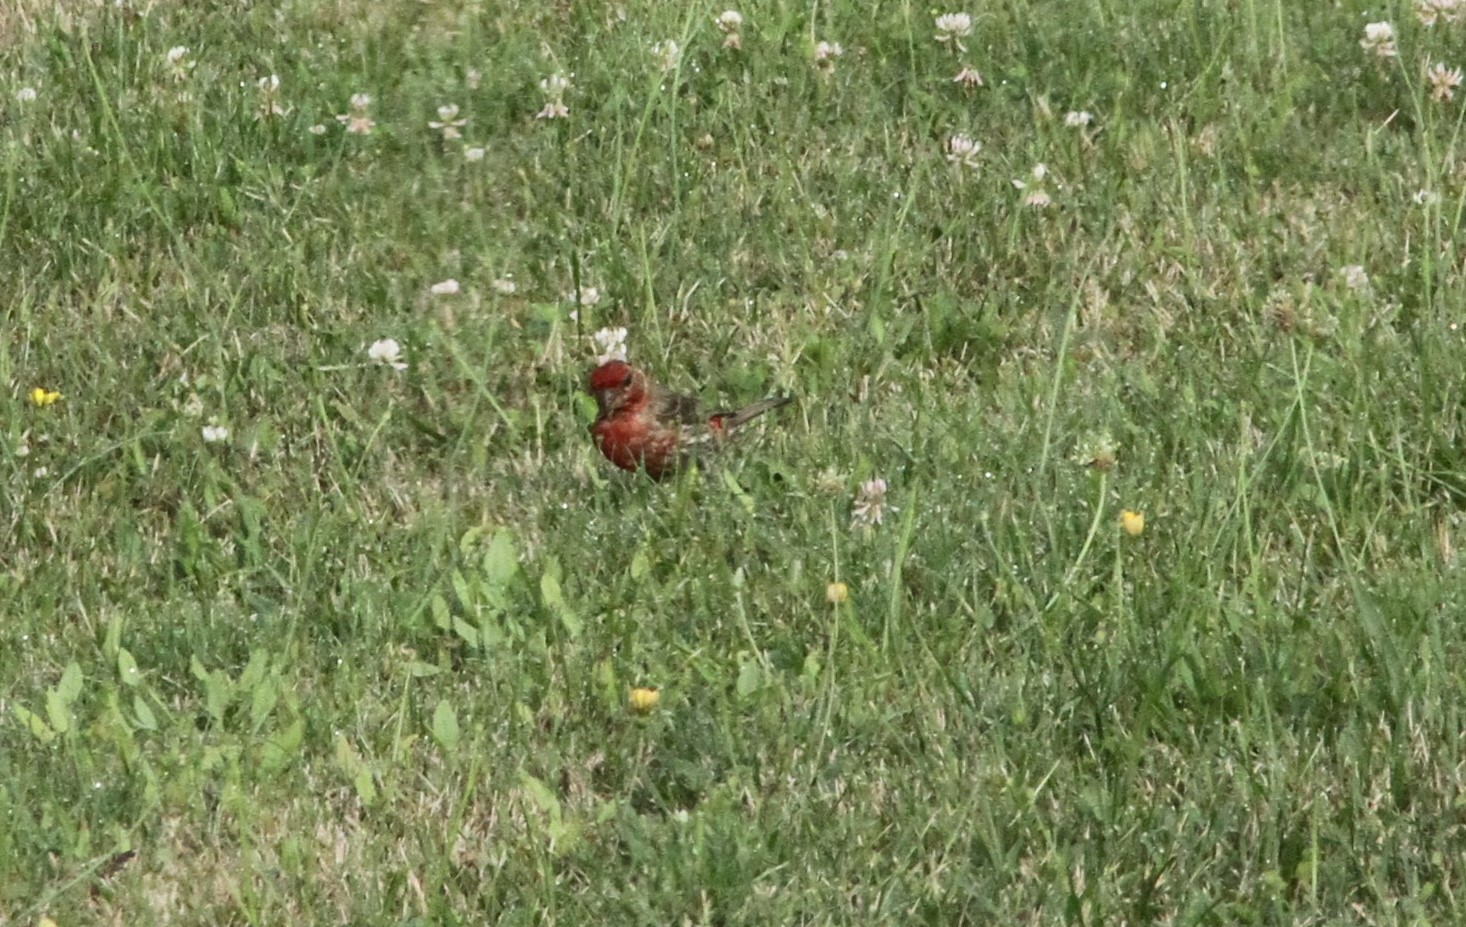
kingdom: Animalia
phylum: Chordata
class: Aves
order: Passeriformes
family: Fringillidae
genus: Haemorhous
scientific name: Haemorhous mexicanus
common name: House finch
